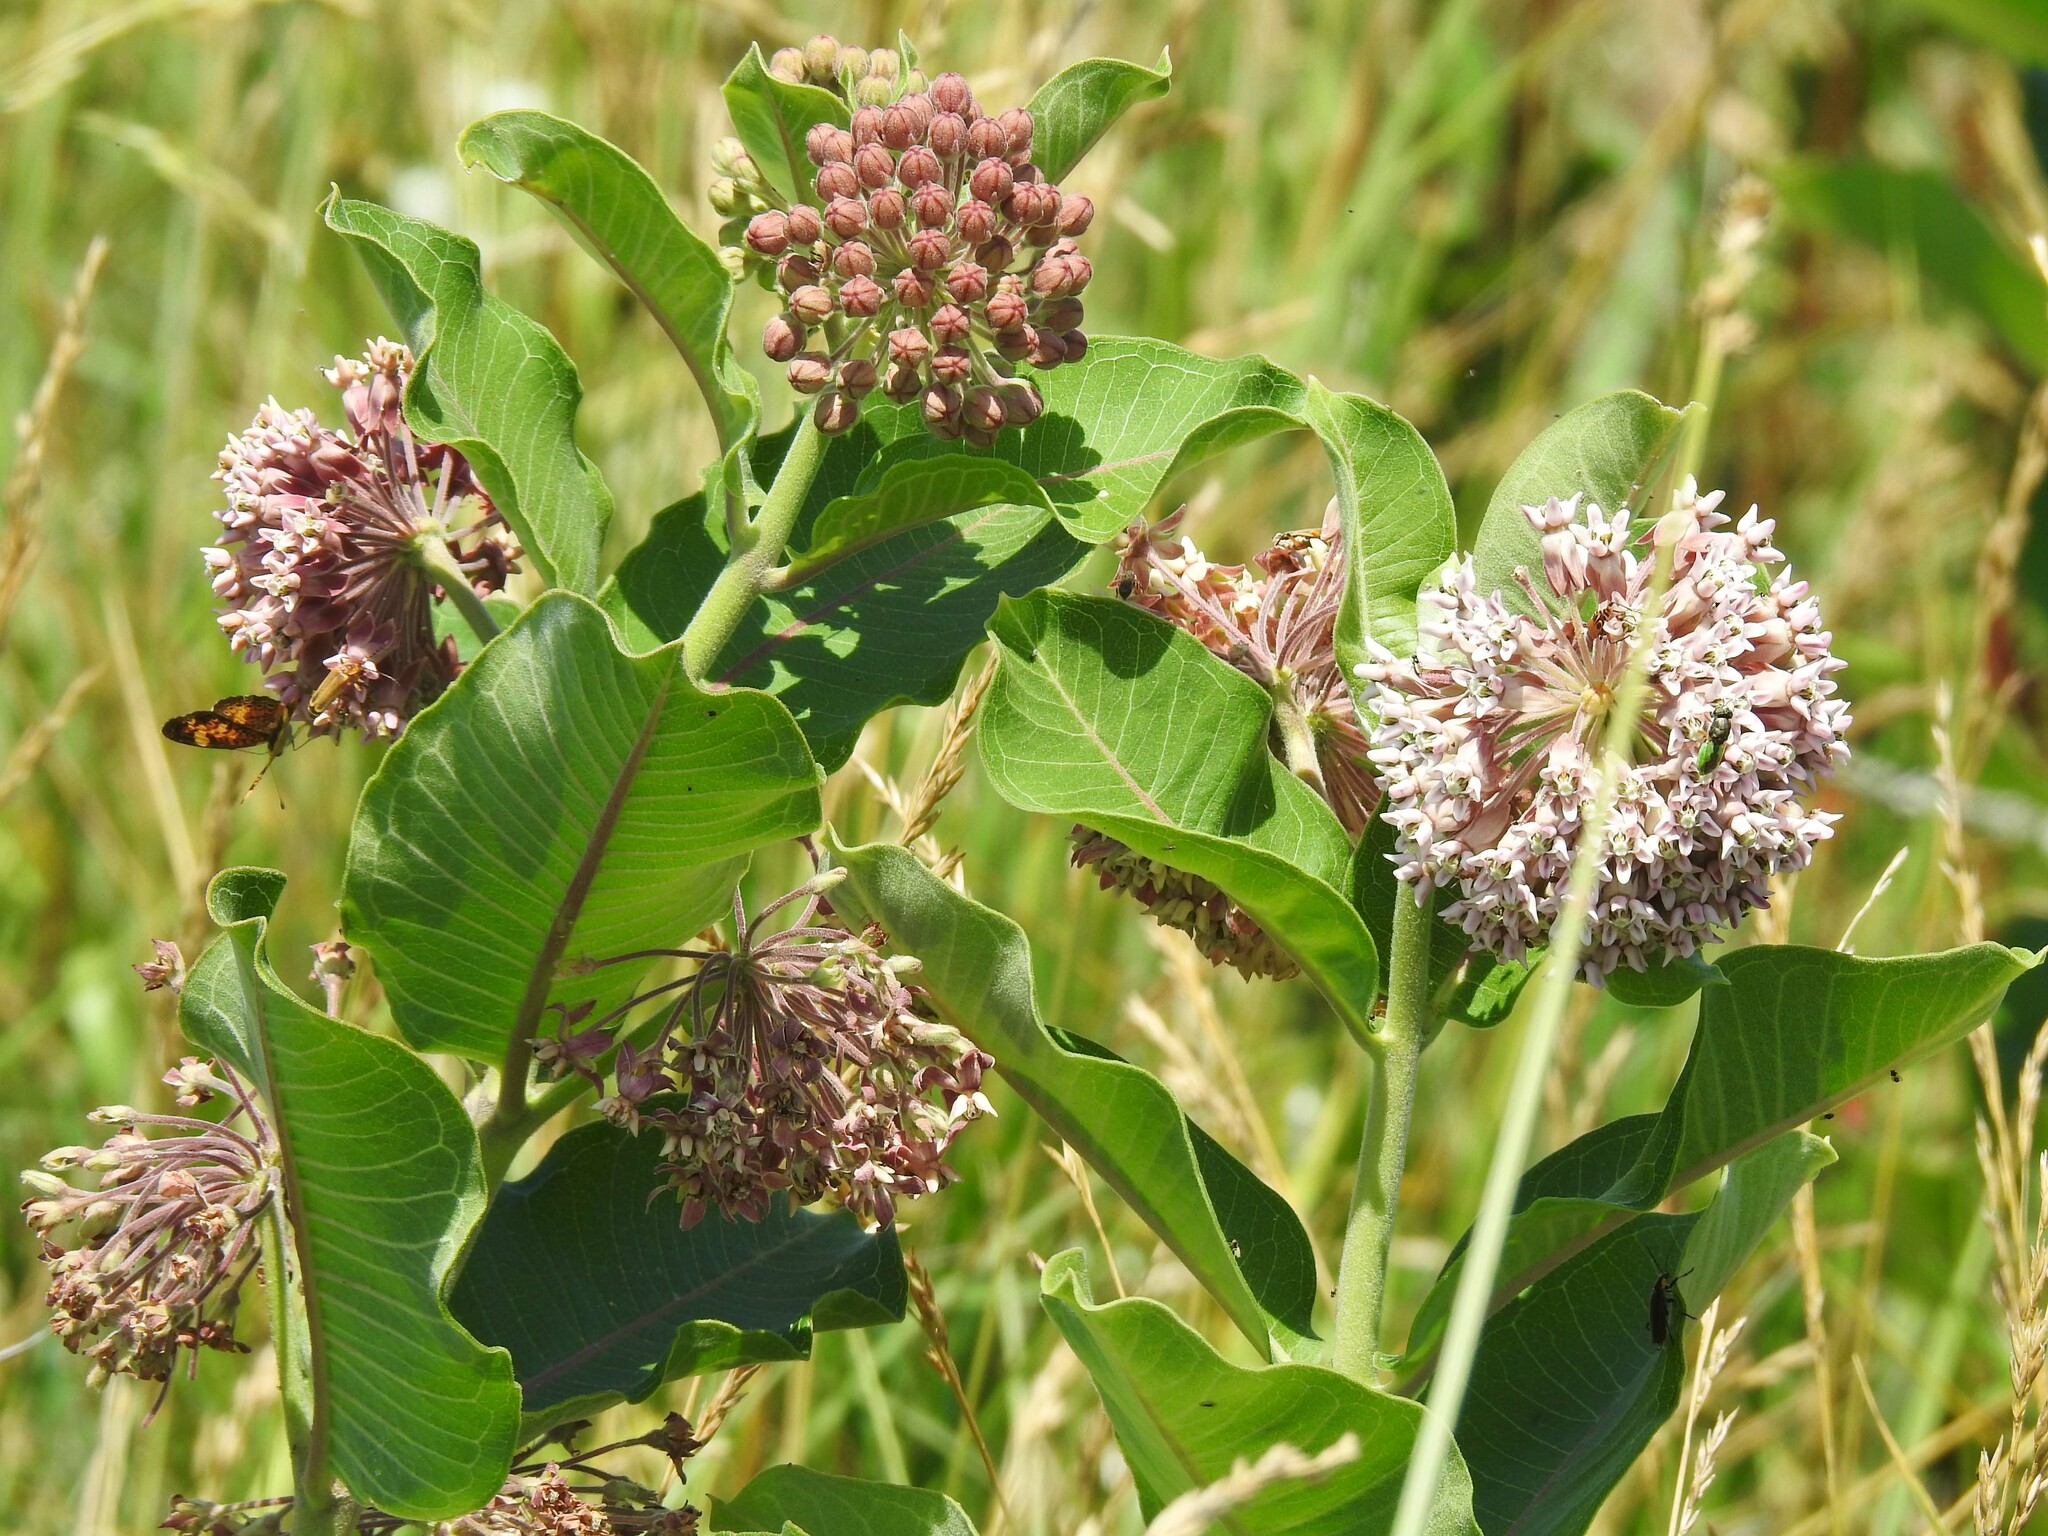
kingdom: Plantae
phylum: Tracheophyta
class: Magnoliopsida
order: Gentianales
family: Apocynaceae
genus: Asclepias
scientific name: Asclepias syriaca
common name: Common milkweed
